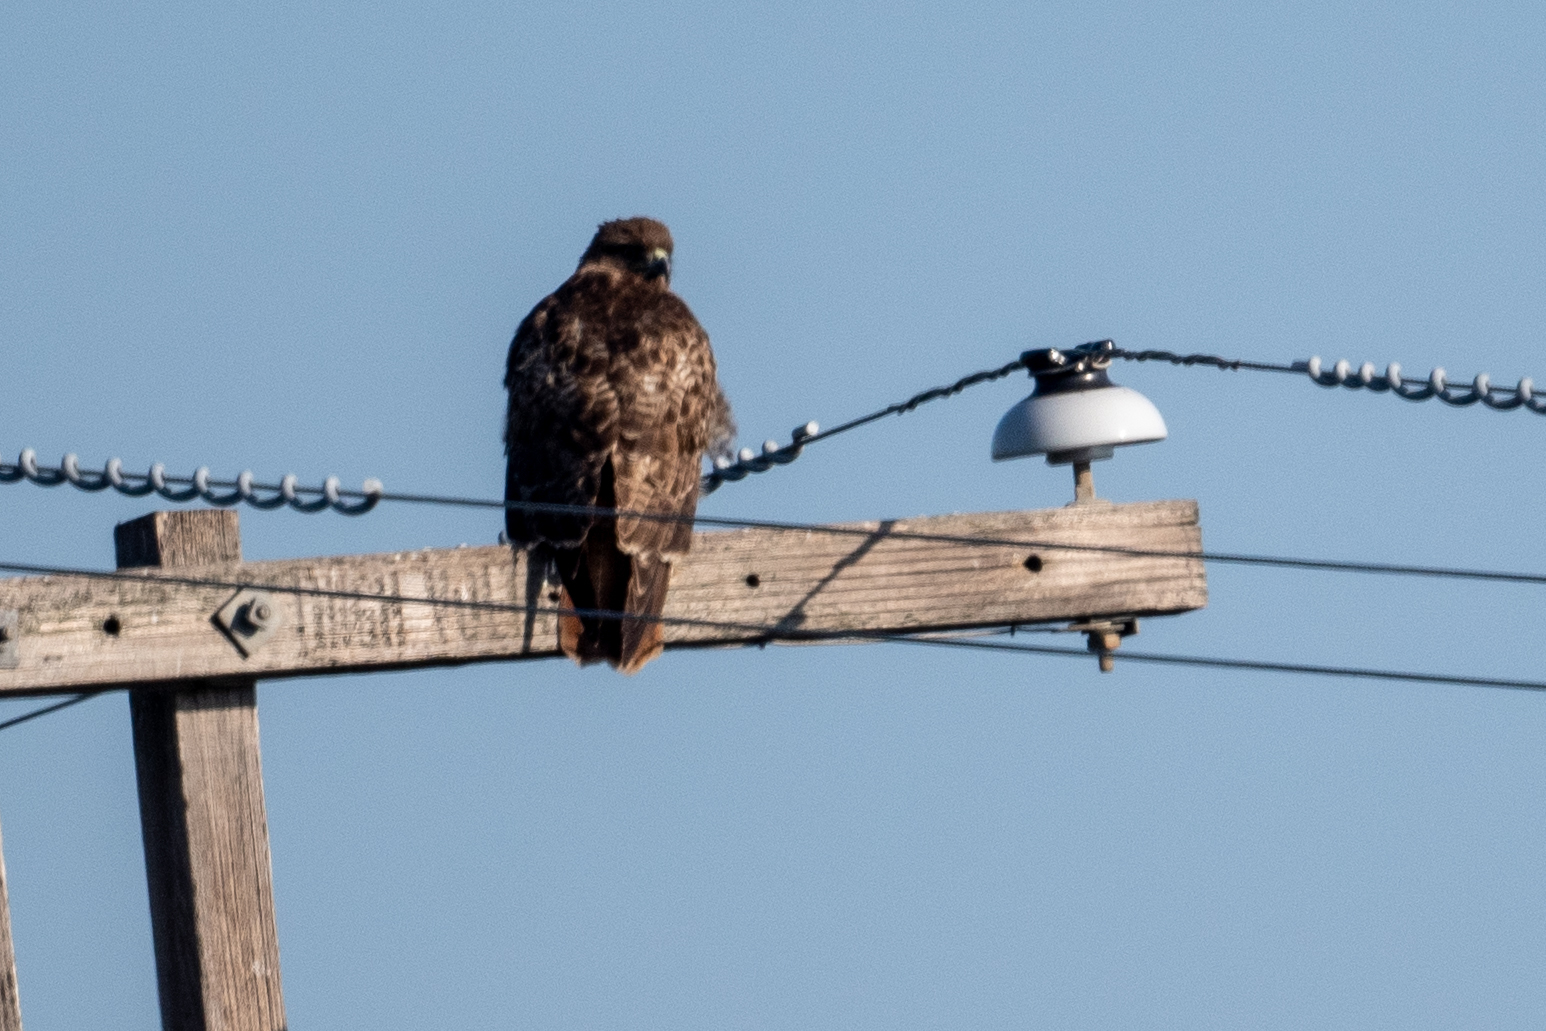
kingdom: Animalia
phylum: Chordata
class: Aves
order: Accipitriformes
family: Accipitridae
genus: Buteo
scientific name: Buteo jamaicensis
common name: Red-tailed hawk
